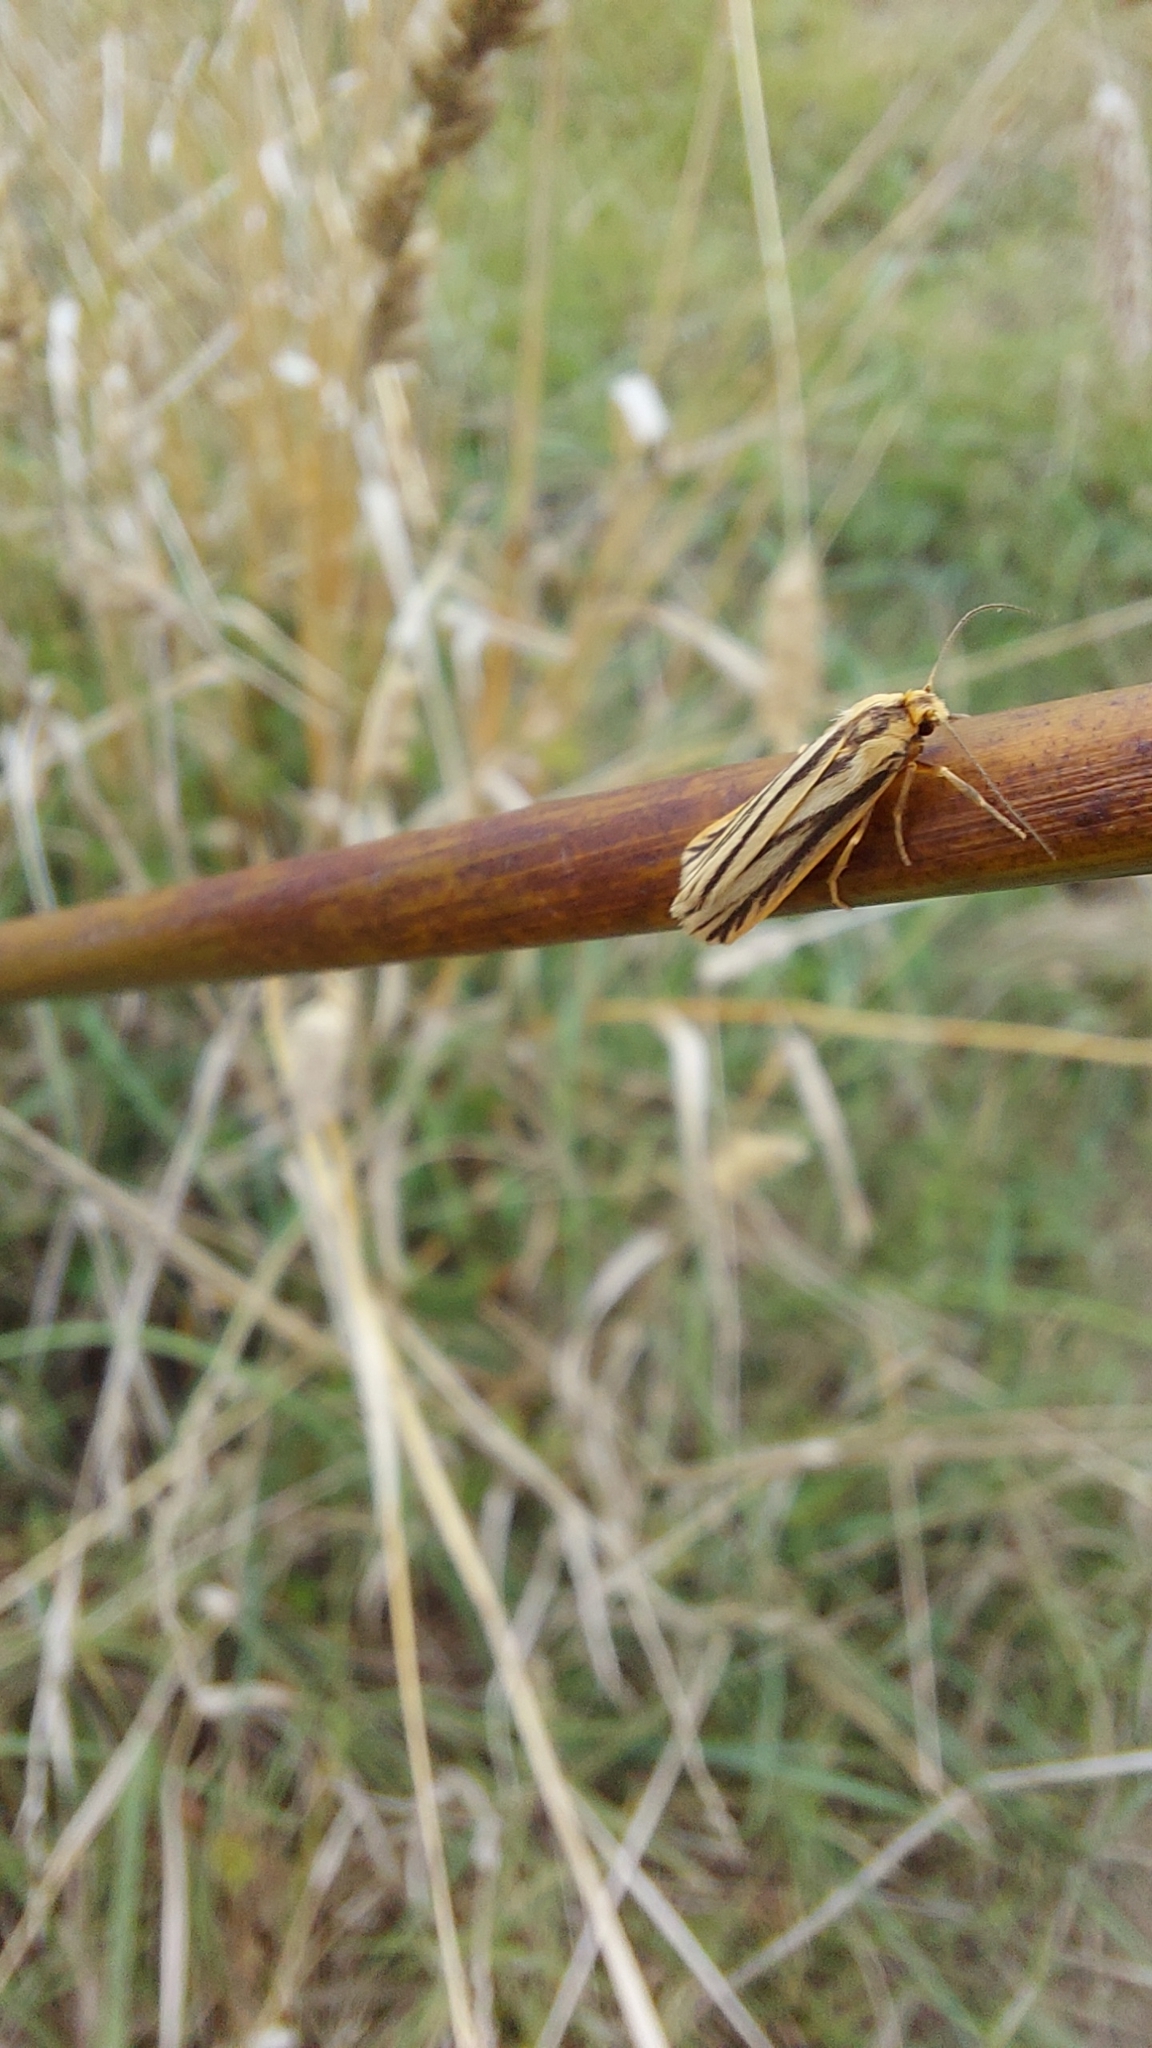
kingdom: Animalia
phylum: Arthropoda
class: Insecta
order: Lepidoptera
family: Erebidae
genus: Phaeophlebosia
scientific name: Phaeophlebosia furcifera
